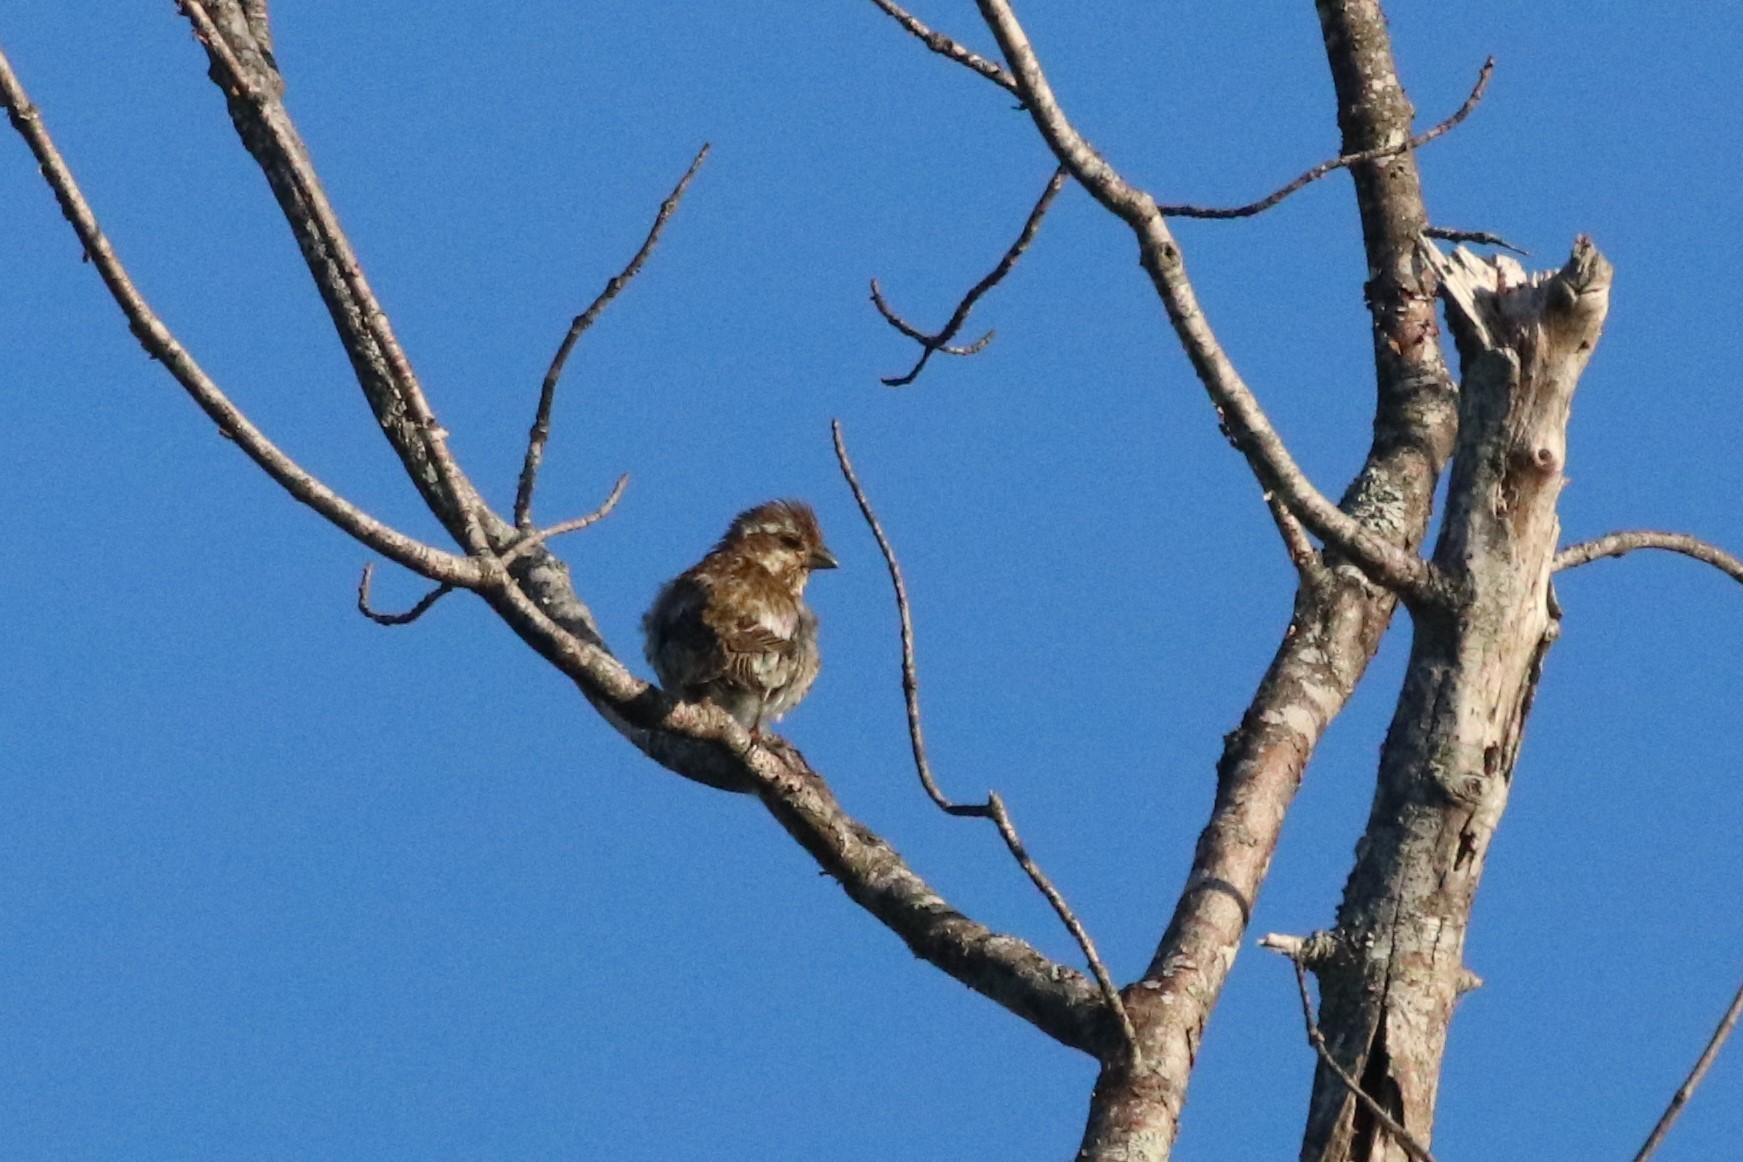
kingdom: Animalia
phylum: Chordata
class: Aves
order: Passeriformes
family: Fringillidae
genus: Haemorhous
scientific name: Haemorhous purpureus
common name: Purple finch
